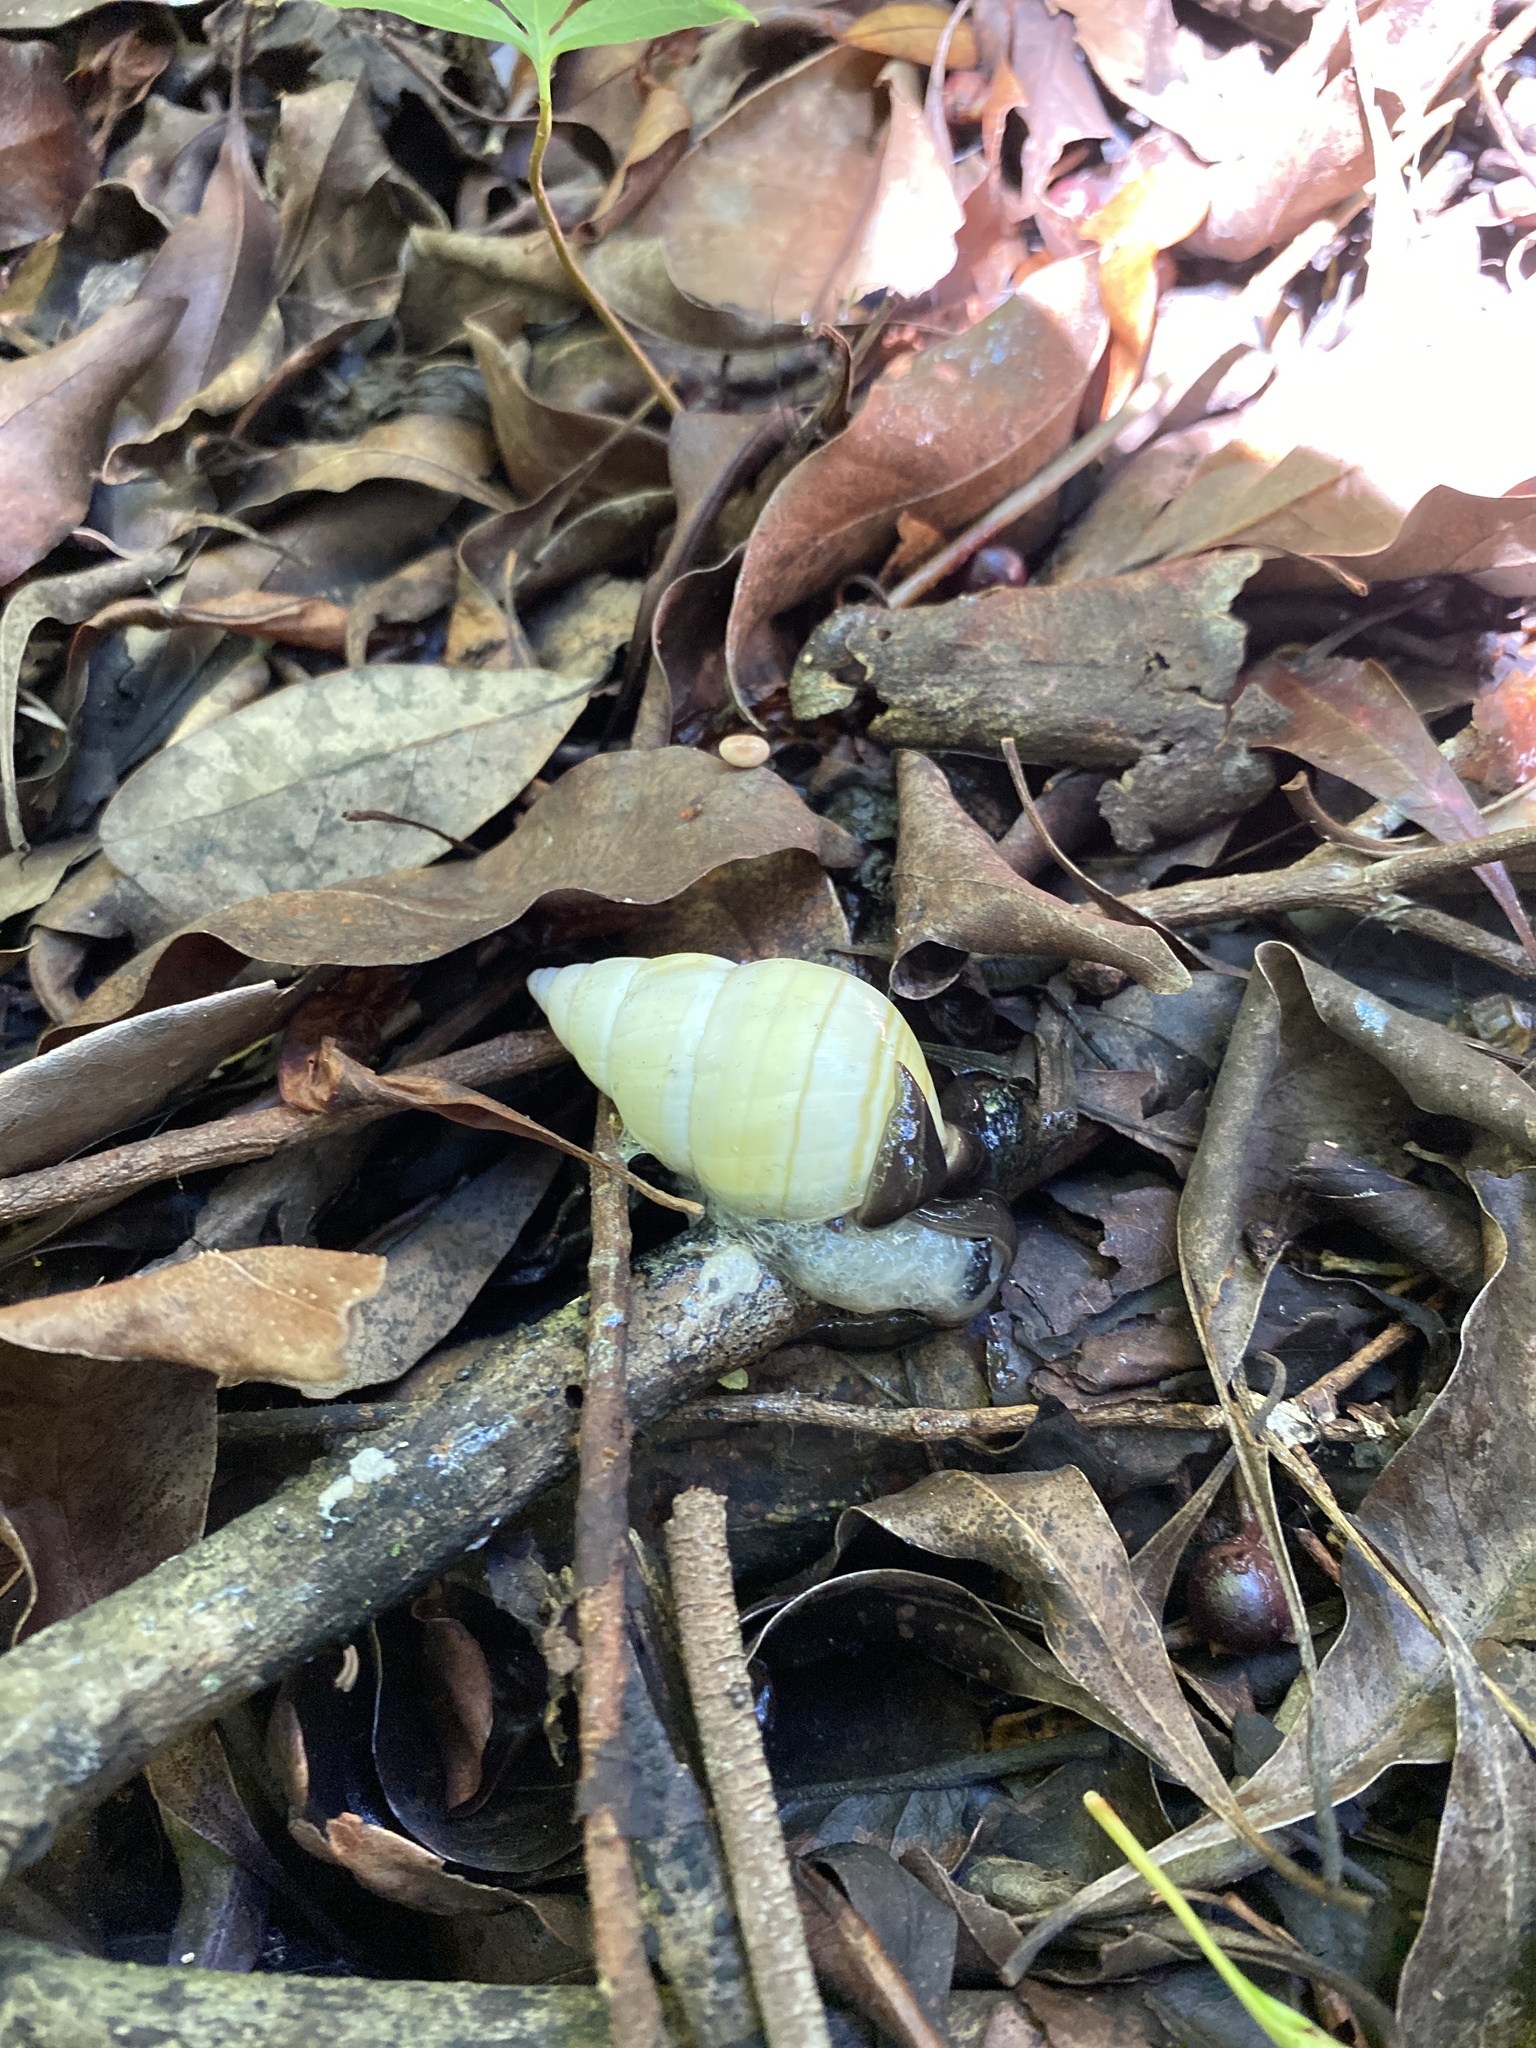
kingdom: Animalia
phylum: Mollusca
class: Gastropoda
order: Stylommatophora
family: Orthalicidae
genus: Liguus
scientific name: Liguus fasciatus
